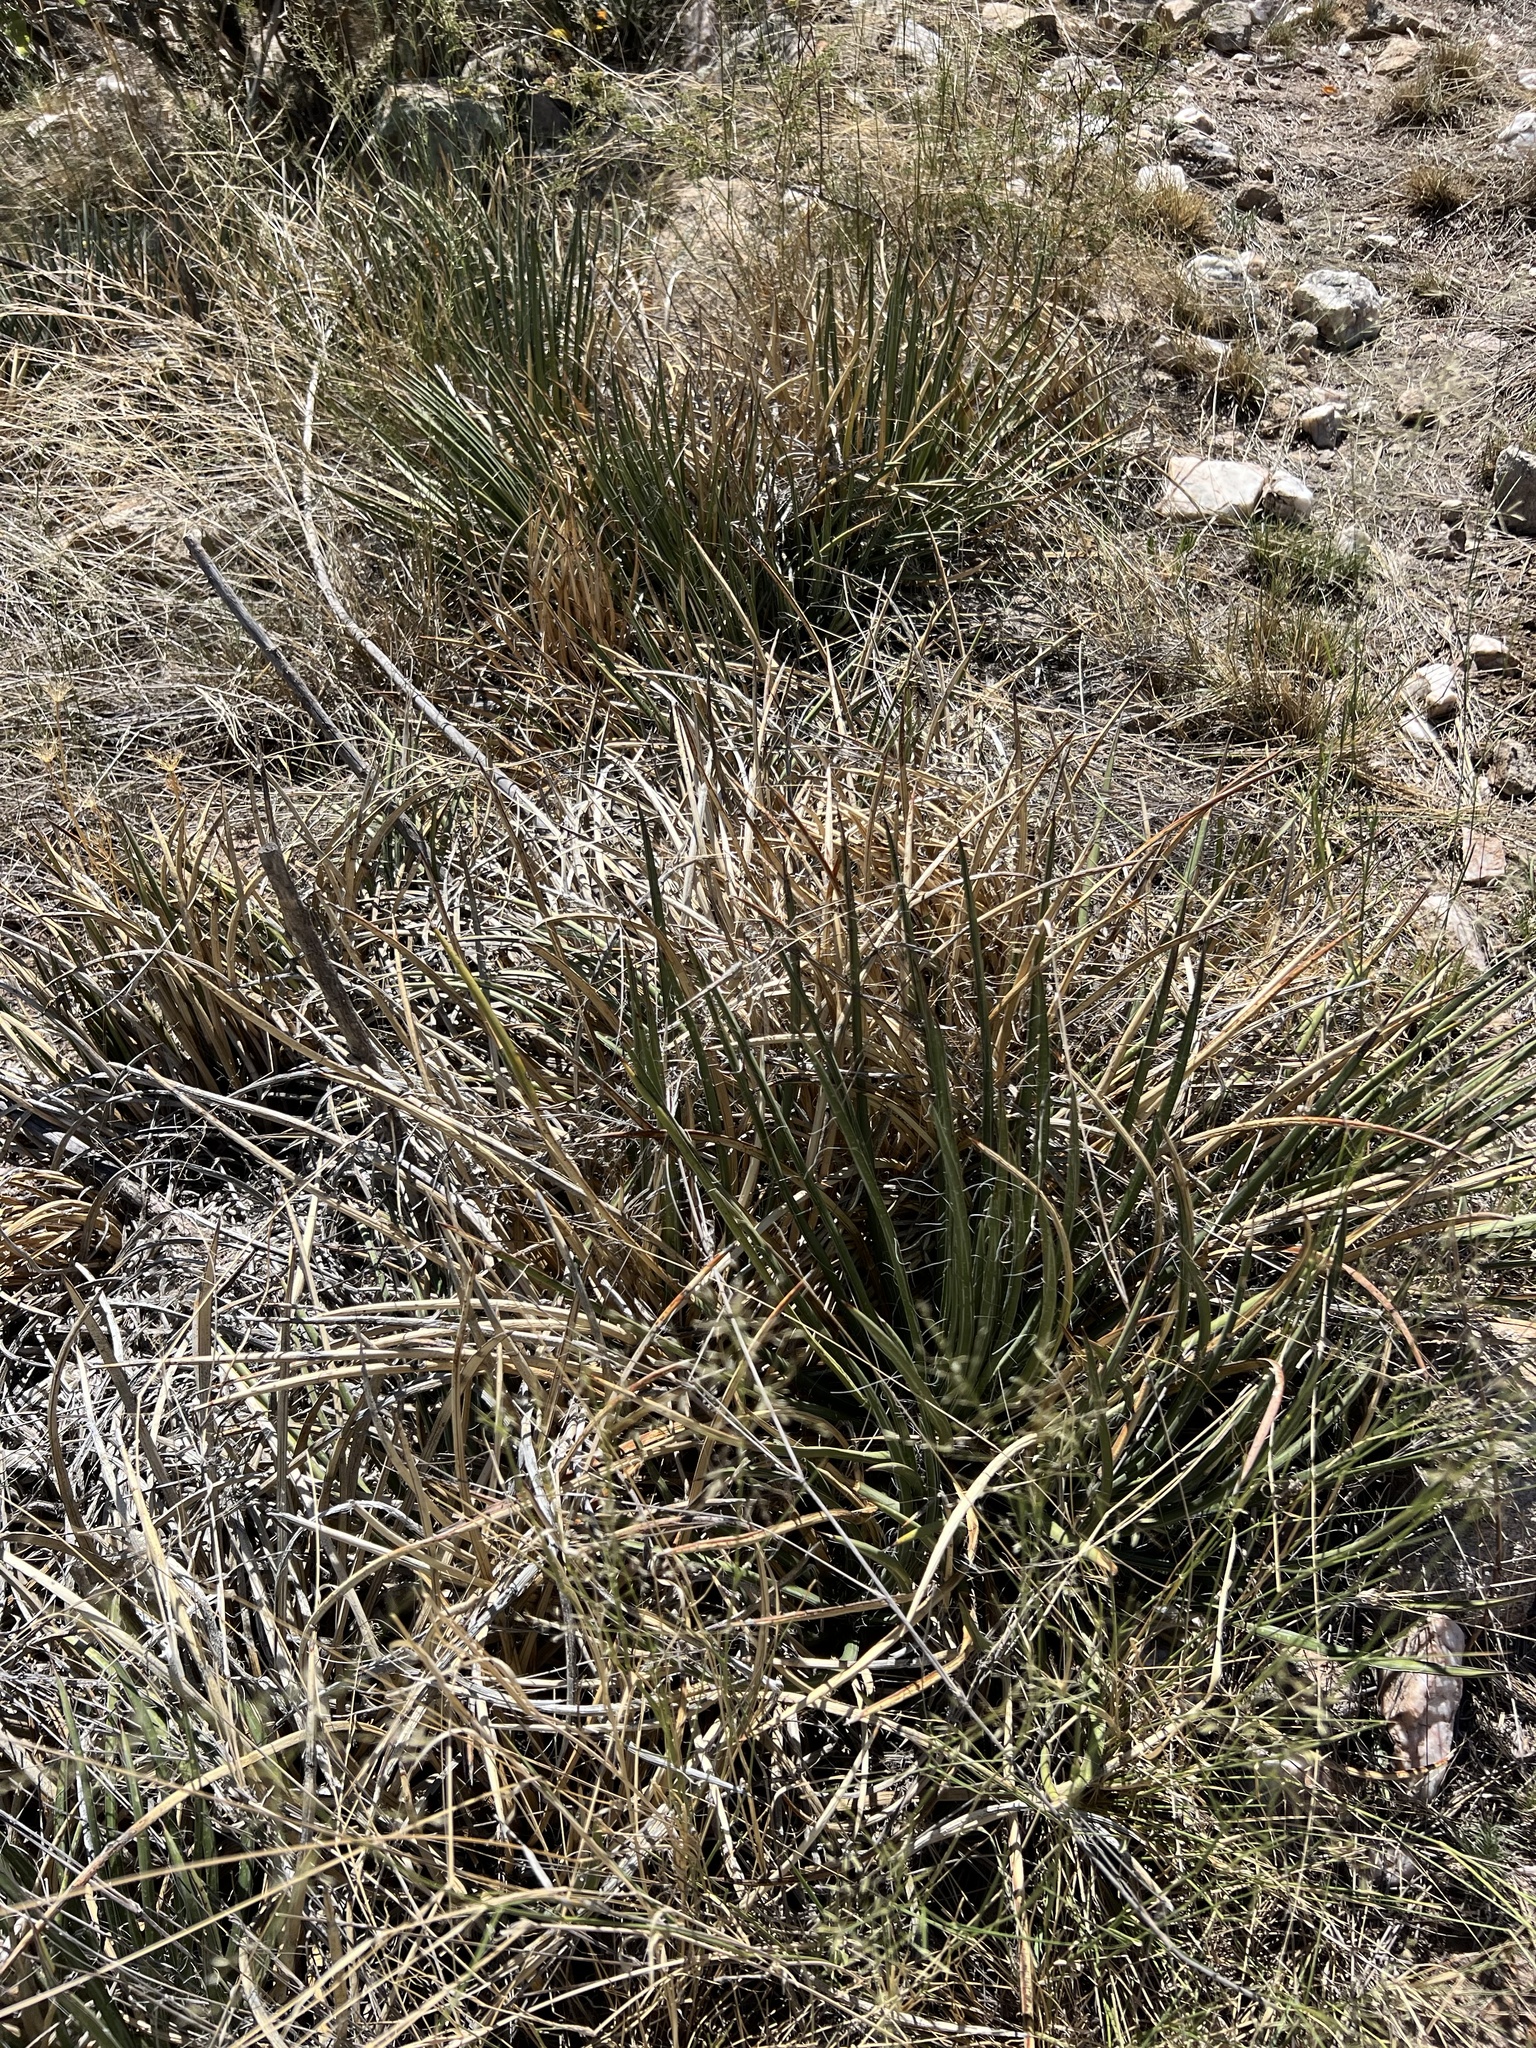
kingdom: Plantae
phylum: Tracheophyta
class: Liliopsida
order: Asparagales
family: Asparagaceae
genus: Agave
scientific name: Agave schottii
